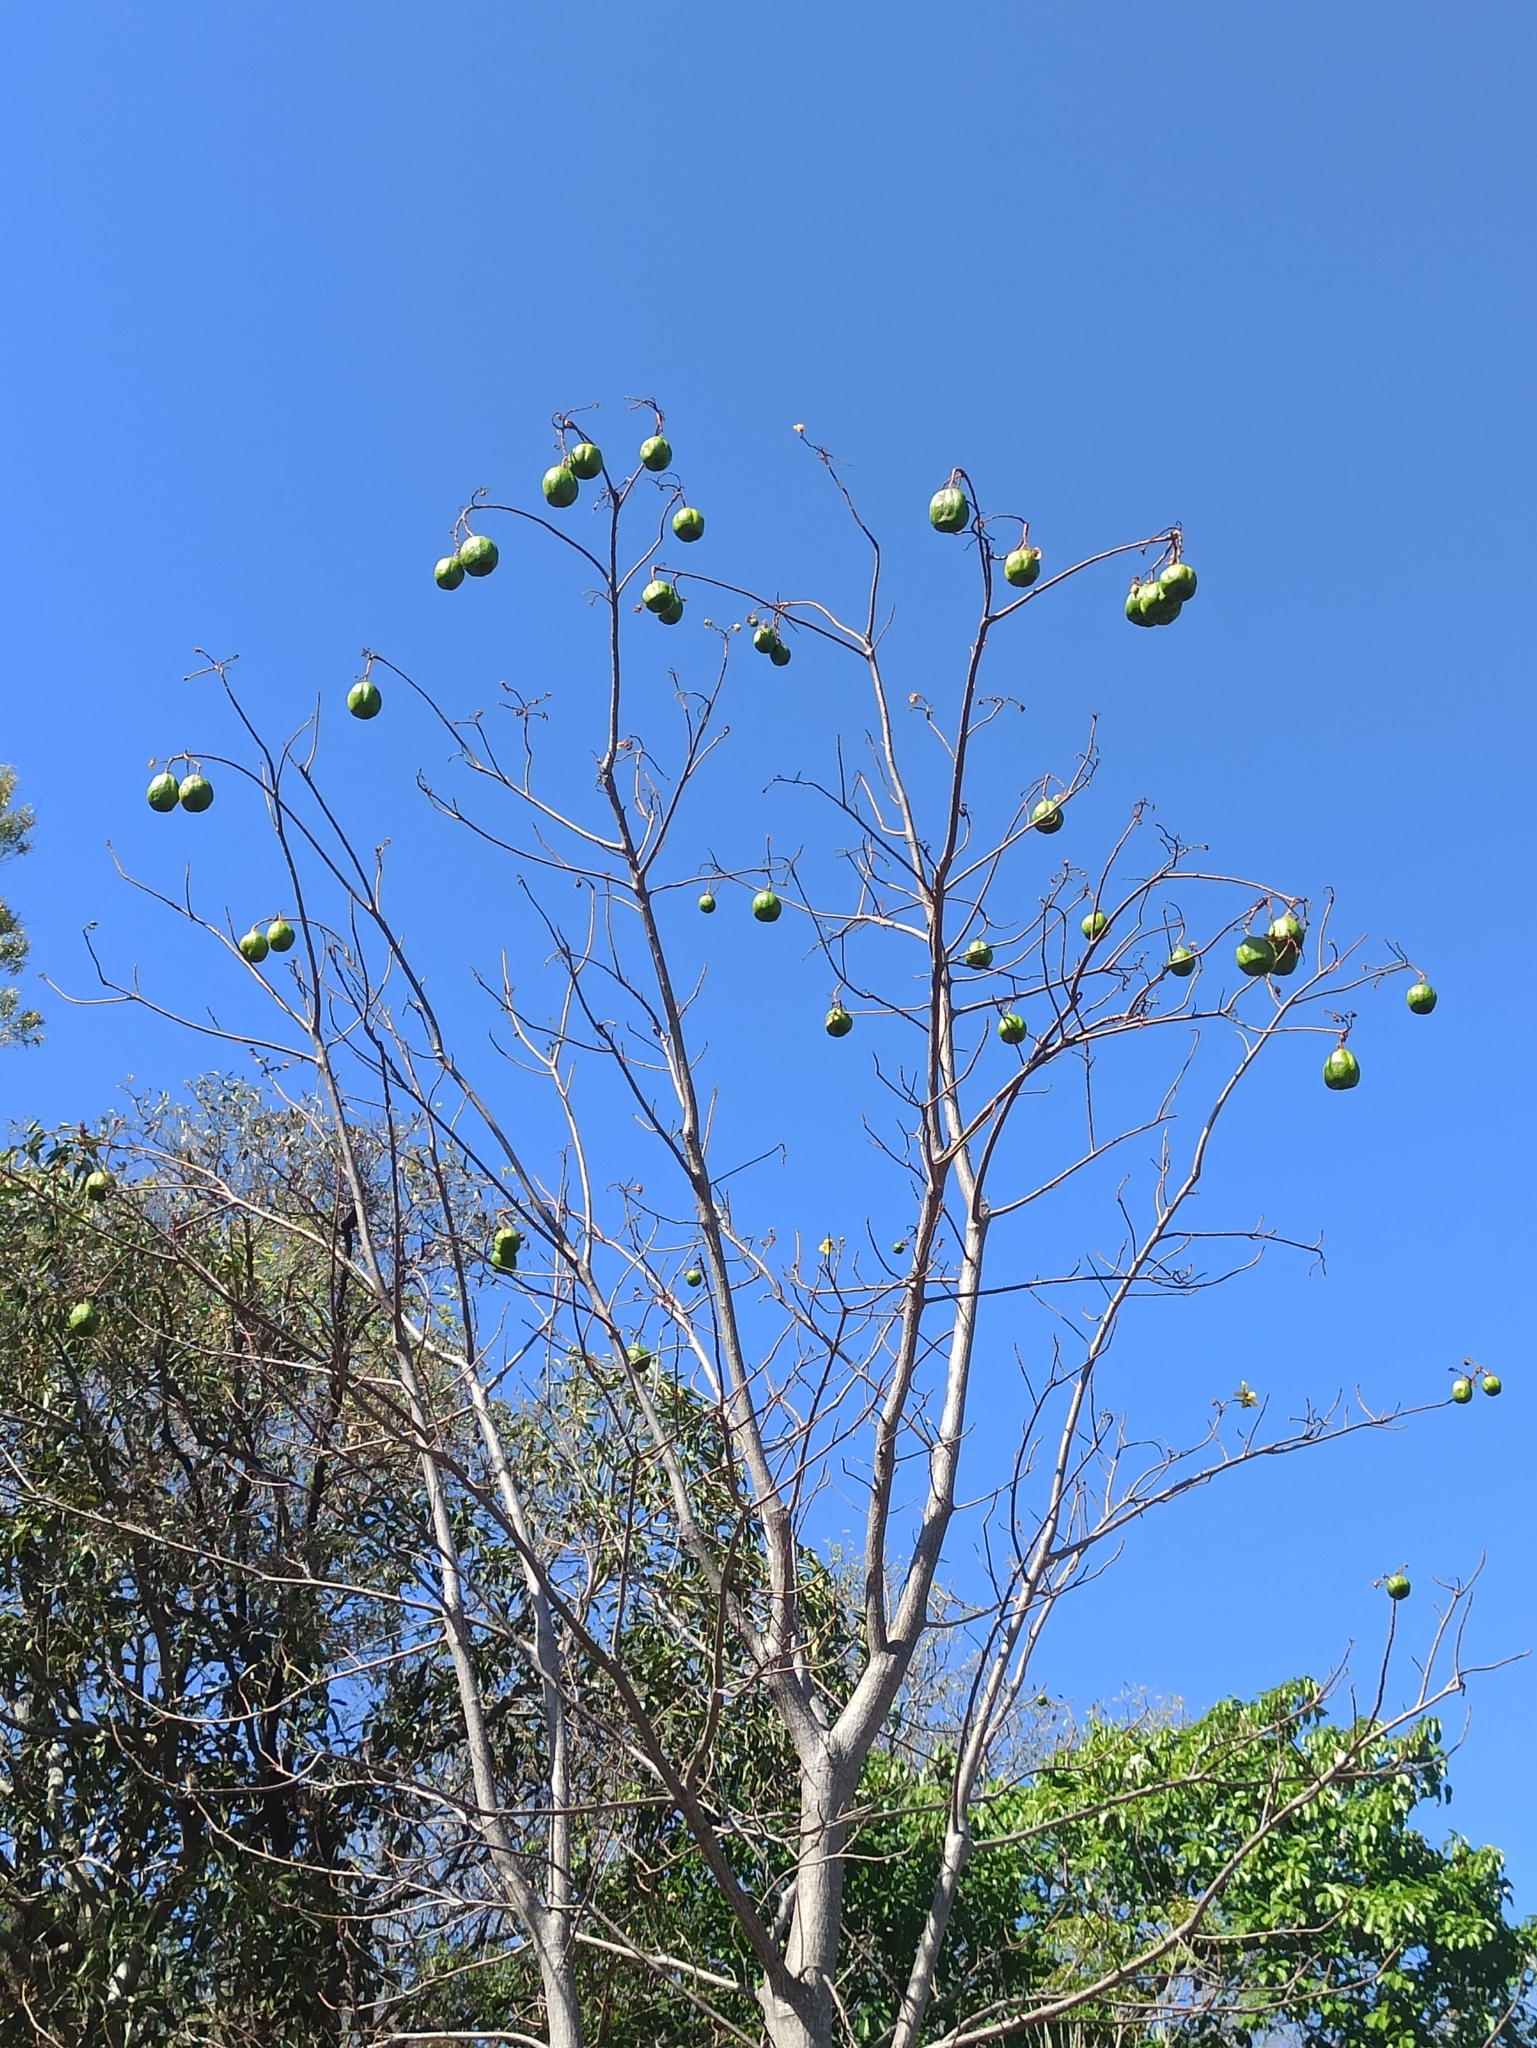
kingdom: Plantae
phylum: Tracheophyta
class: Magnoliopsida
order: Malvales
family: Cochlospermaceae
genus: Cochlospermum
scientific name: Cochlospermum gillivraei
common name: Cottontree
